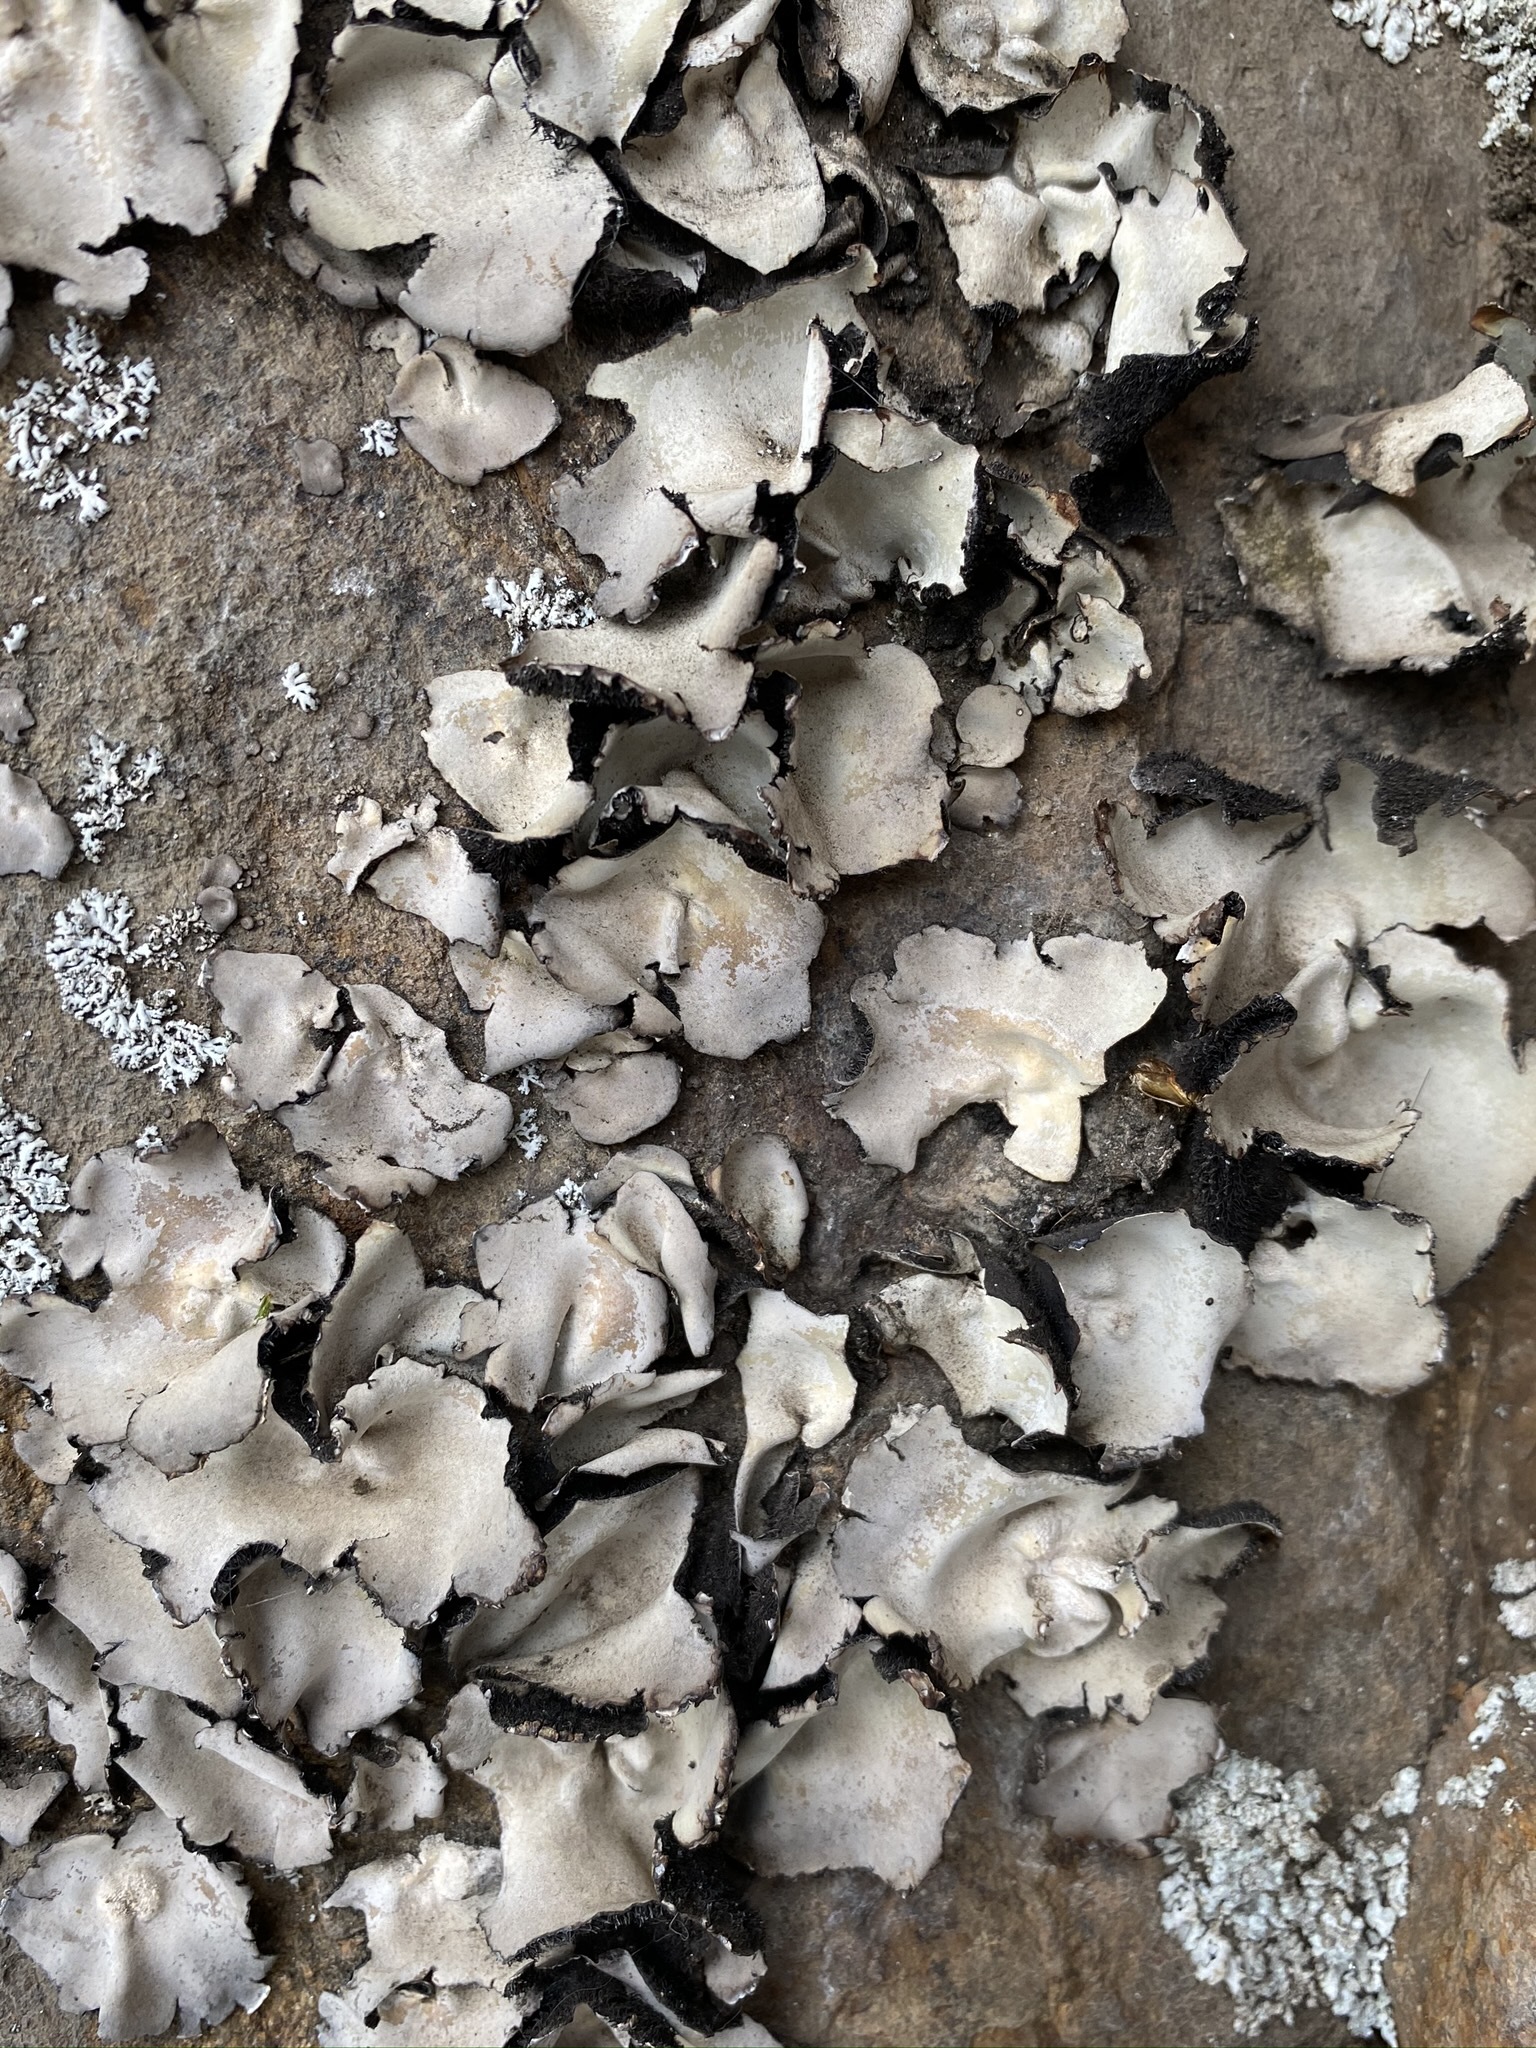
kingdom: Fungi
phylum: Ascomycota
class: Lecanoromycetes
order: Umbilicariales
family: Umbilicariaceae
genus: Umbilicaria
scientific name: Umbilicaria americana
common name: Frosted rock tripe
